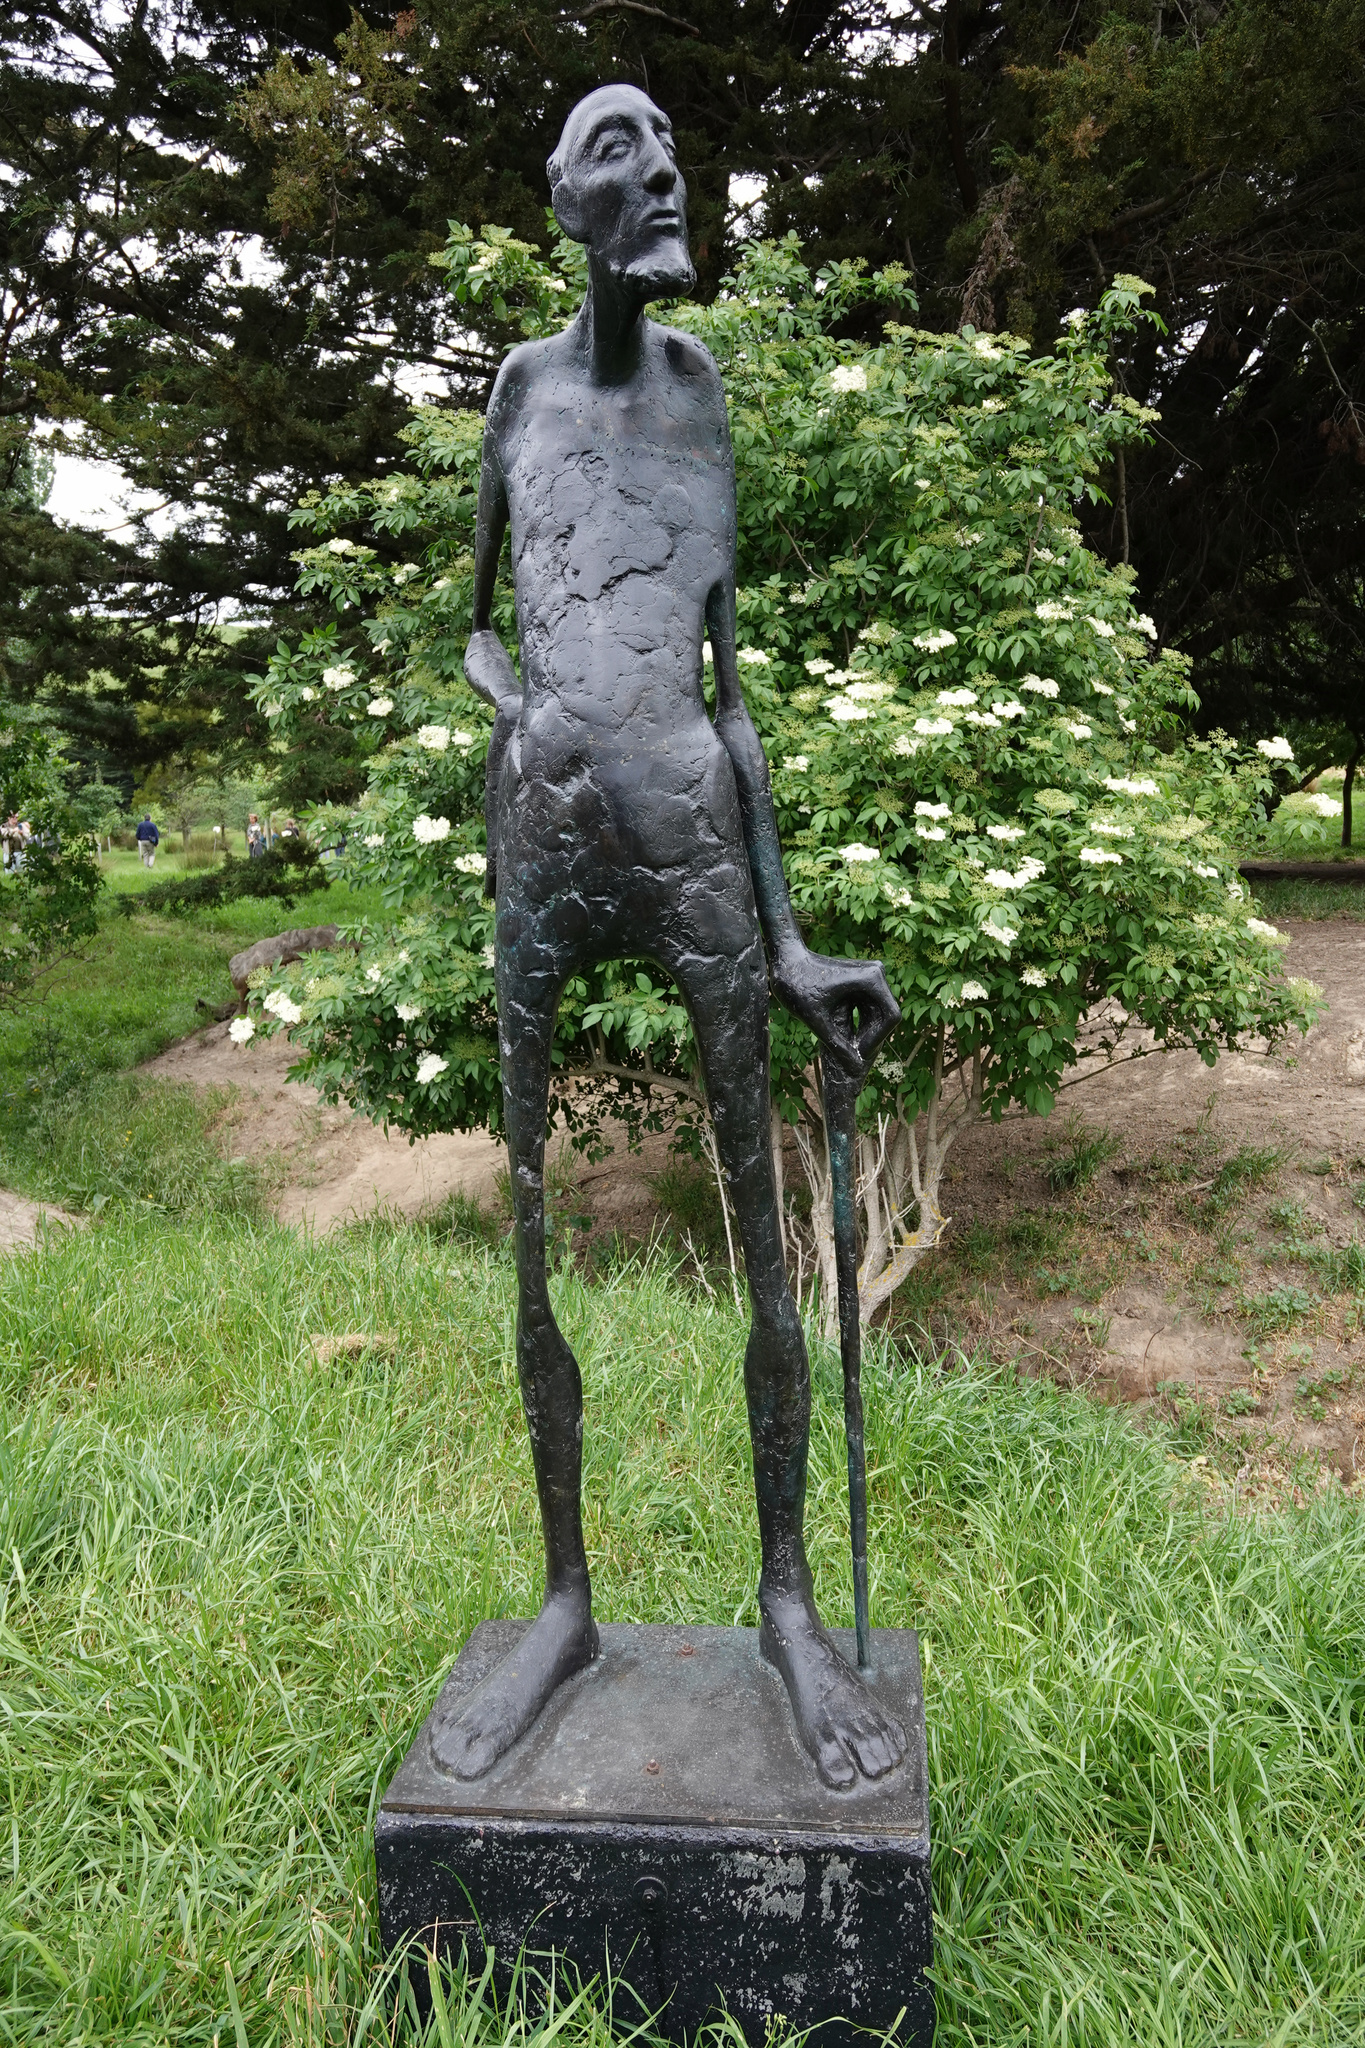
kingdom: Plantae
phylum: Tracheophyta
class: Magnoliopsida
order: Dipsacales
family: Viburnaceae
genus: Sambucus
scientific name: Sambucus nigra
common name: Elder
